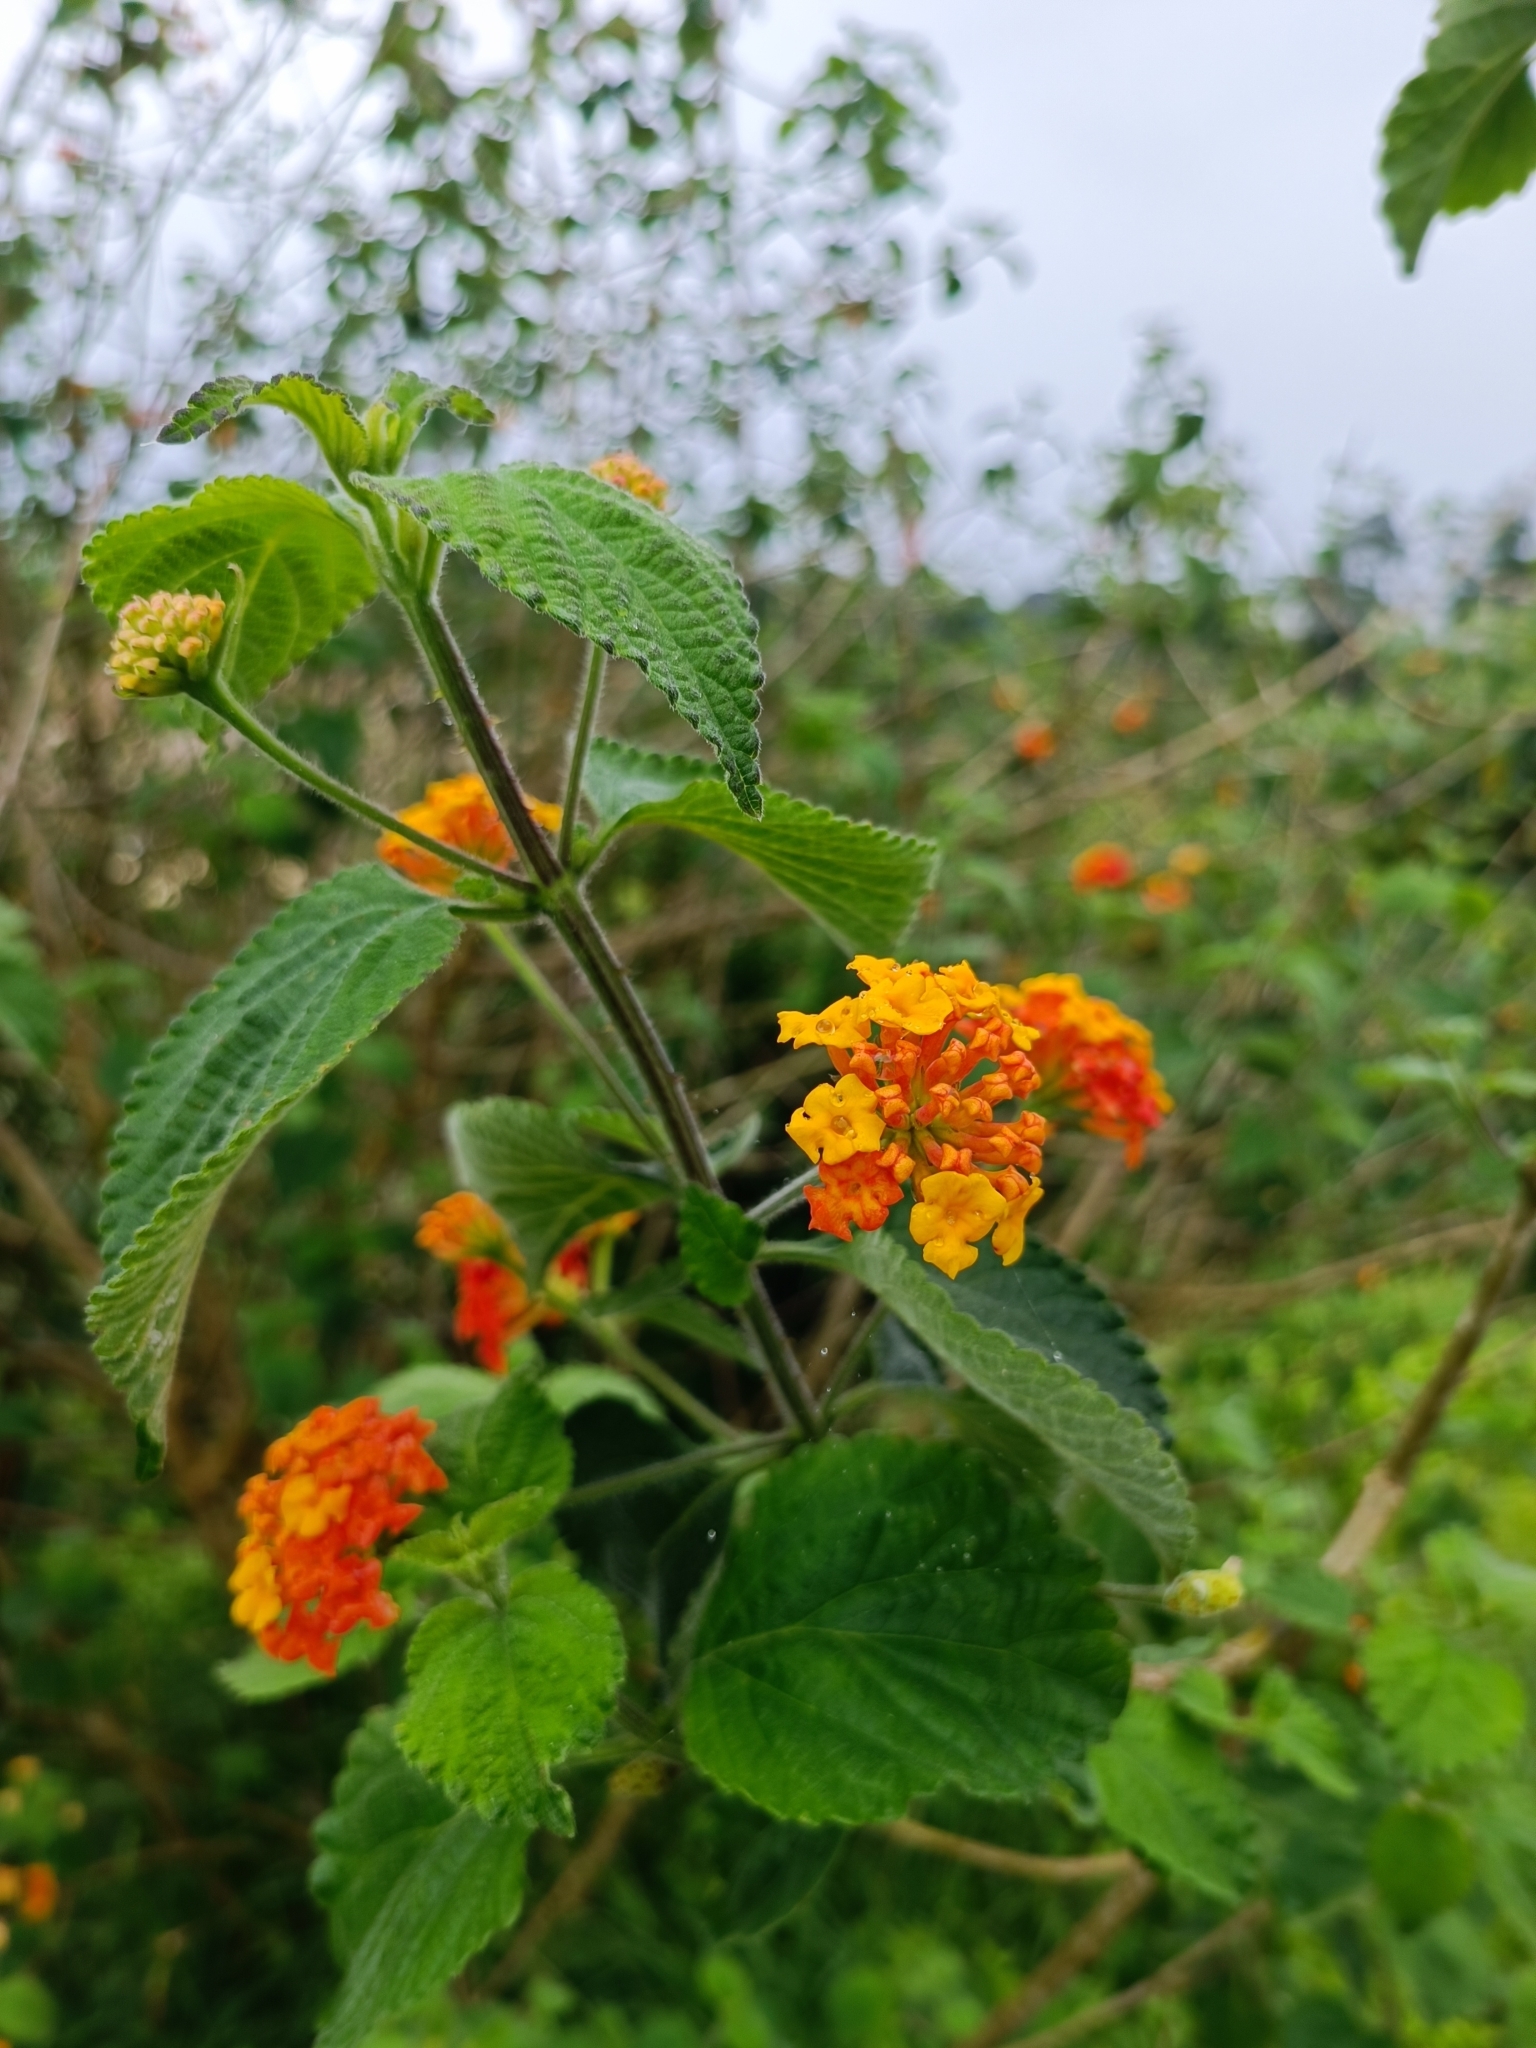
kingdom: Plantae
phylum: Tracheophyta
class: Magnoliopsida
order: Lamiales
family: Verbenaceae
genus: Lantana
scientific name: Lantana camara
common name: Lantana
